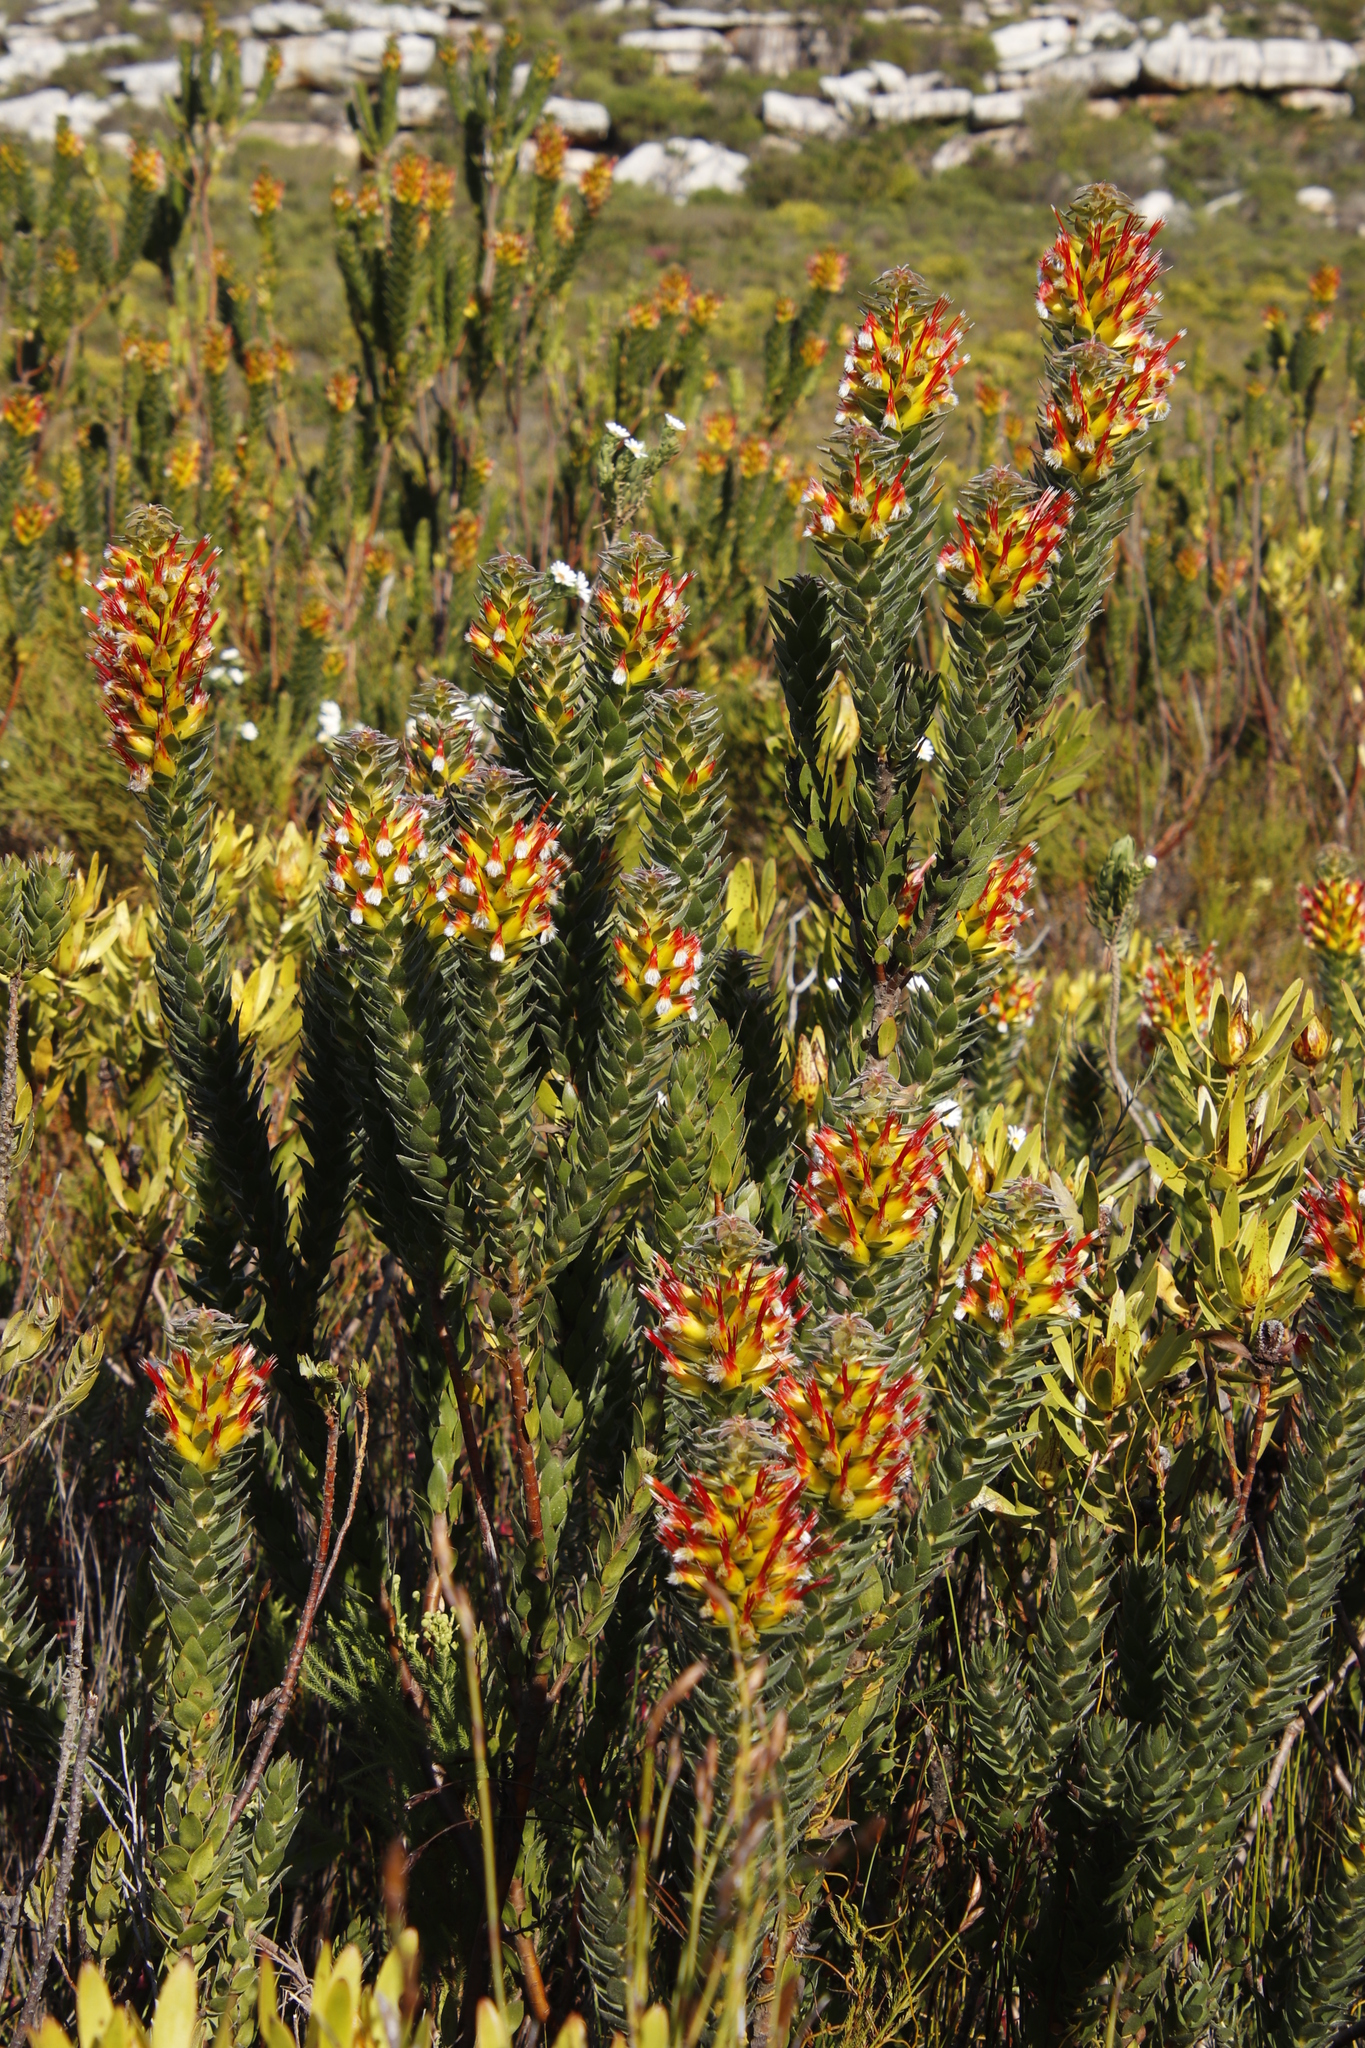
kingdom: Plantae
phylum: Tracheophyta
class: Magnoliopsida
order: Proteales
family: Proteaceae
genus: Mimetes
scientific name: Mimetes hirtus
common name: Marsh pagoda
